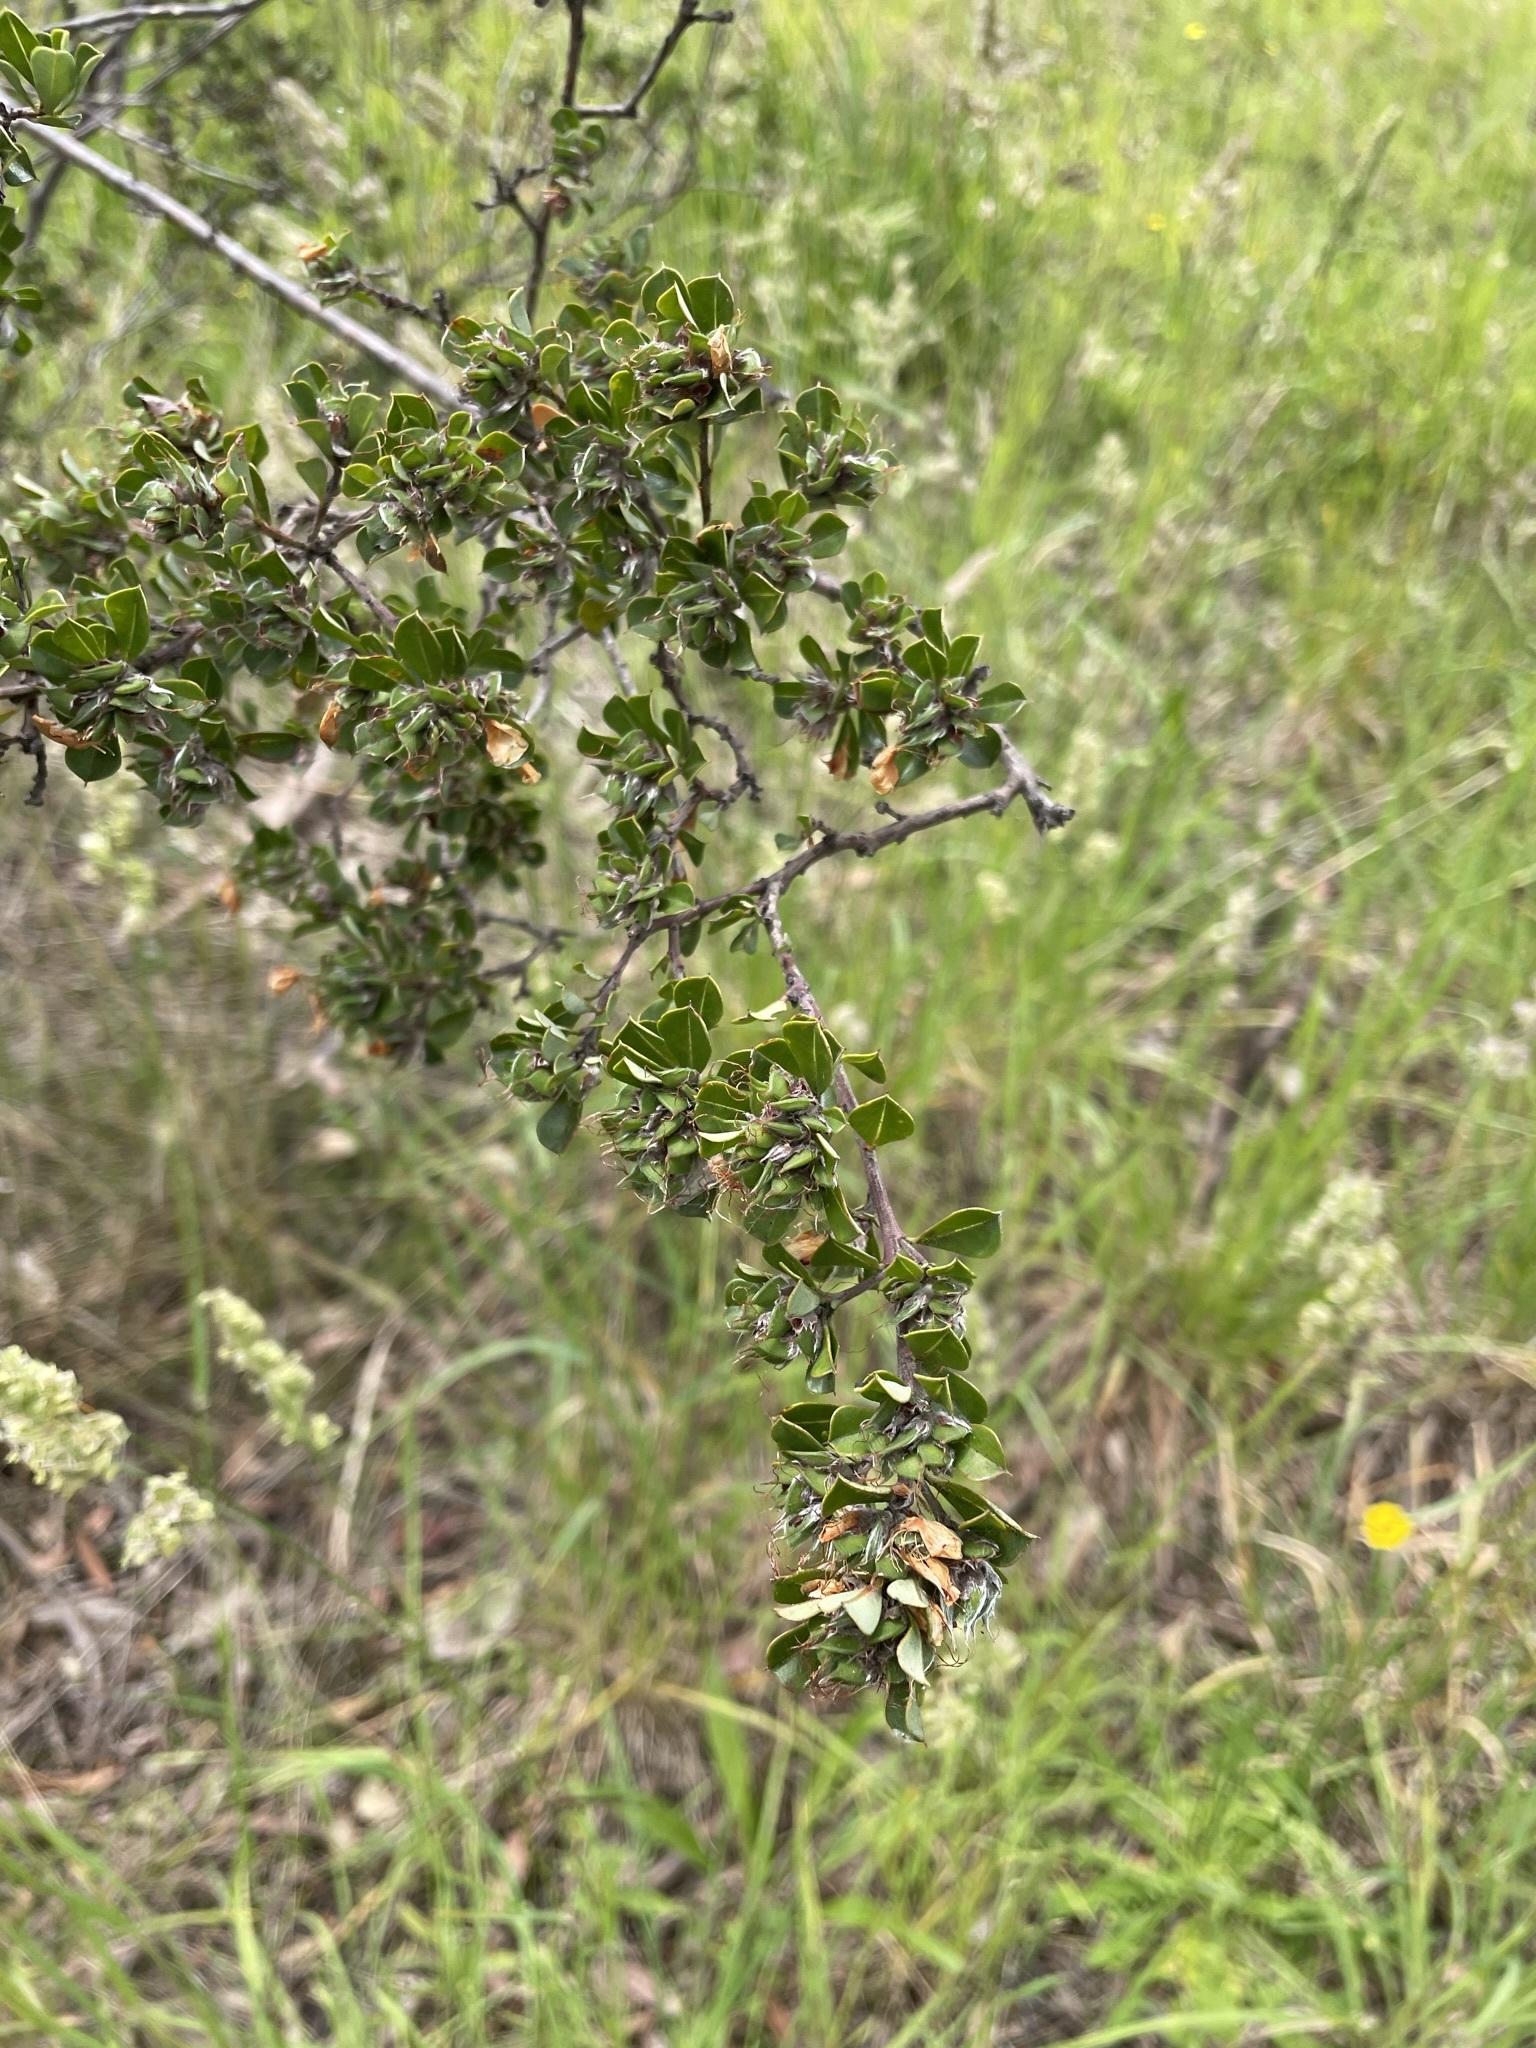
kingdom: Plantae
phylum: Tracheophyta
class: Magnoliopsida
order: Fabales
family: Fabaceae
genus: Pultenaea
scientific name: Pultenaea daphnoides
